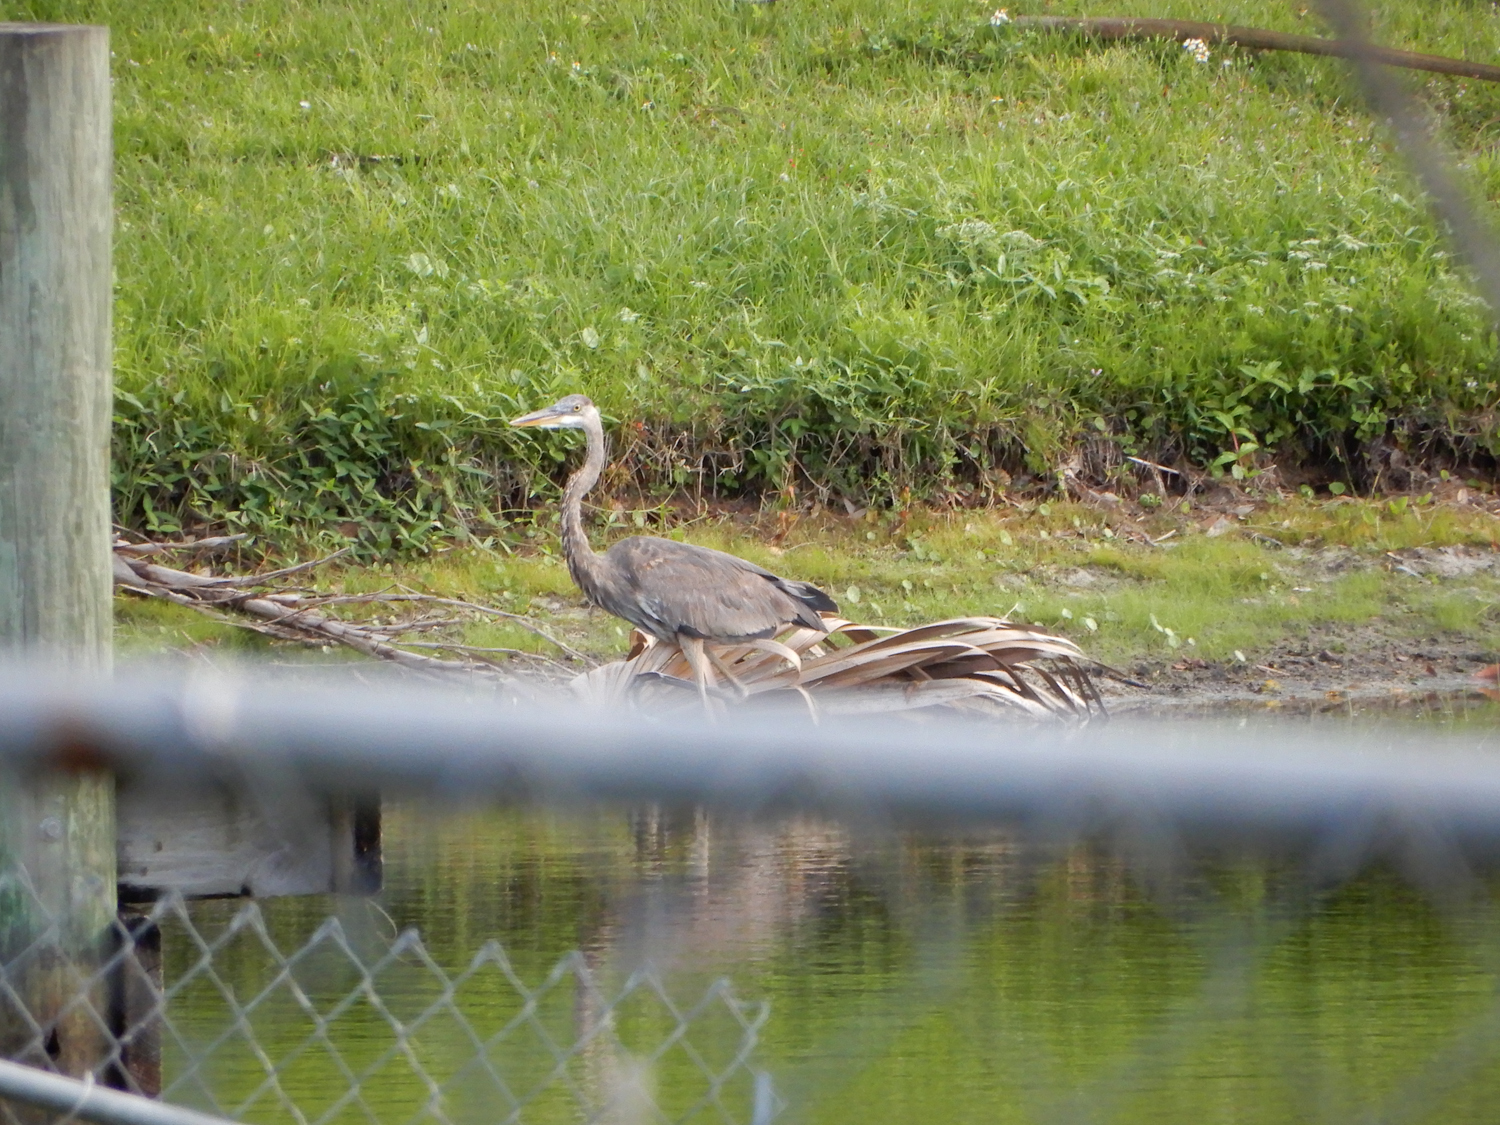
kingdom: Animalia
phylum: Chordata
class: Aves
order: Pelecaniformes
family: Ardeidae
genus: Ardea
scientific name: Ardea herodias
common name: Great blue heron
